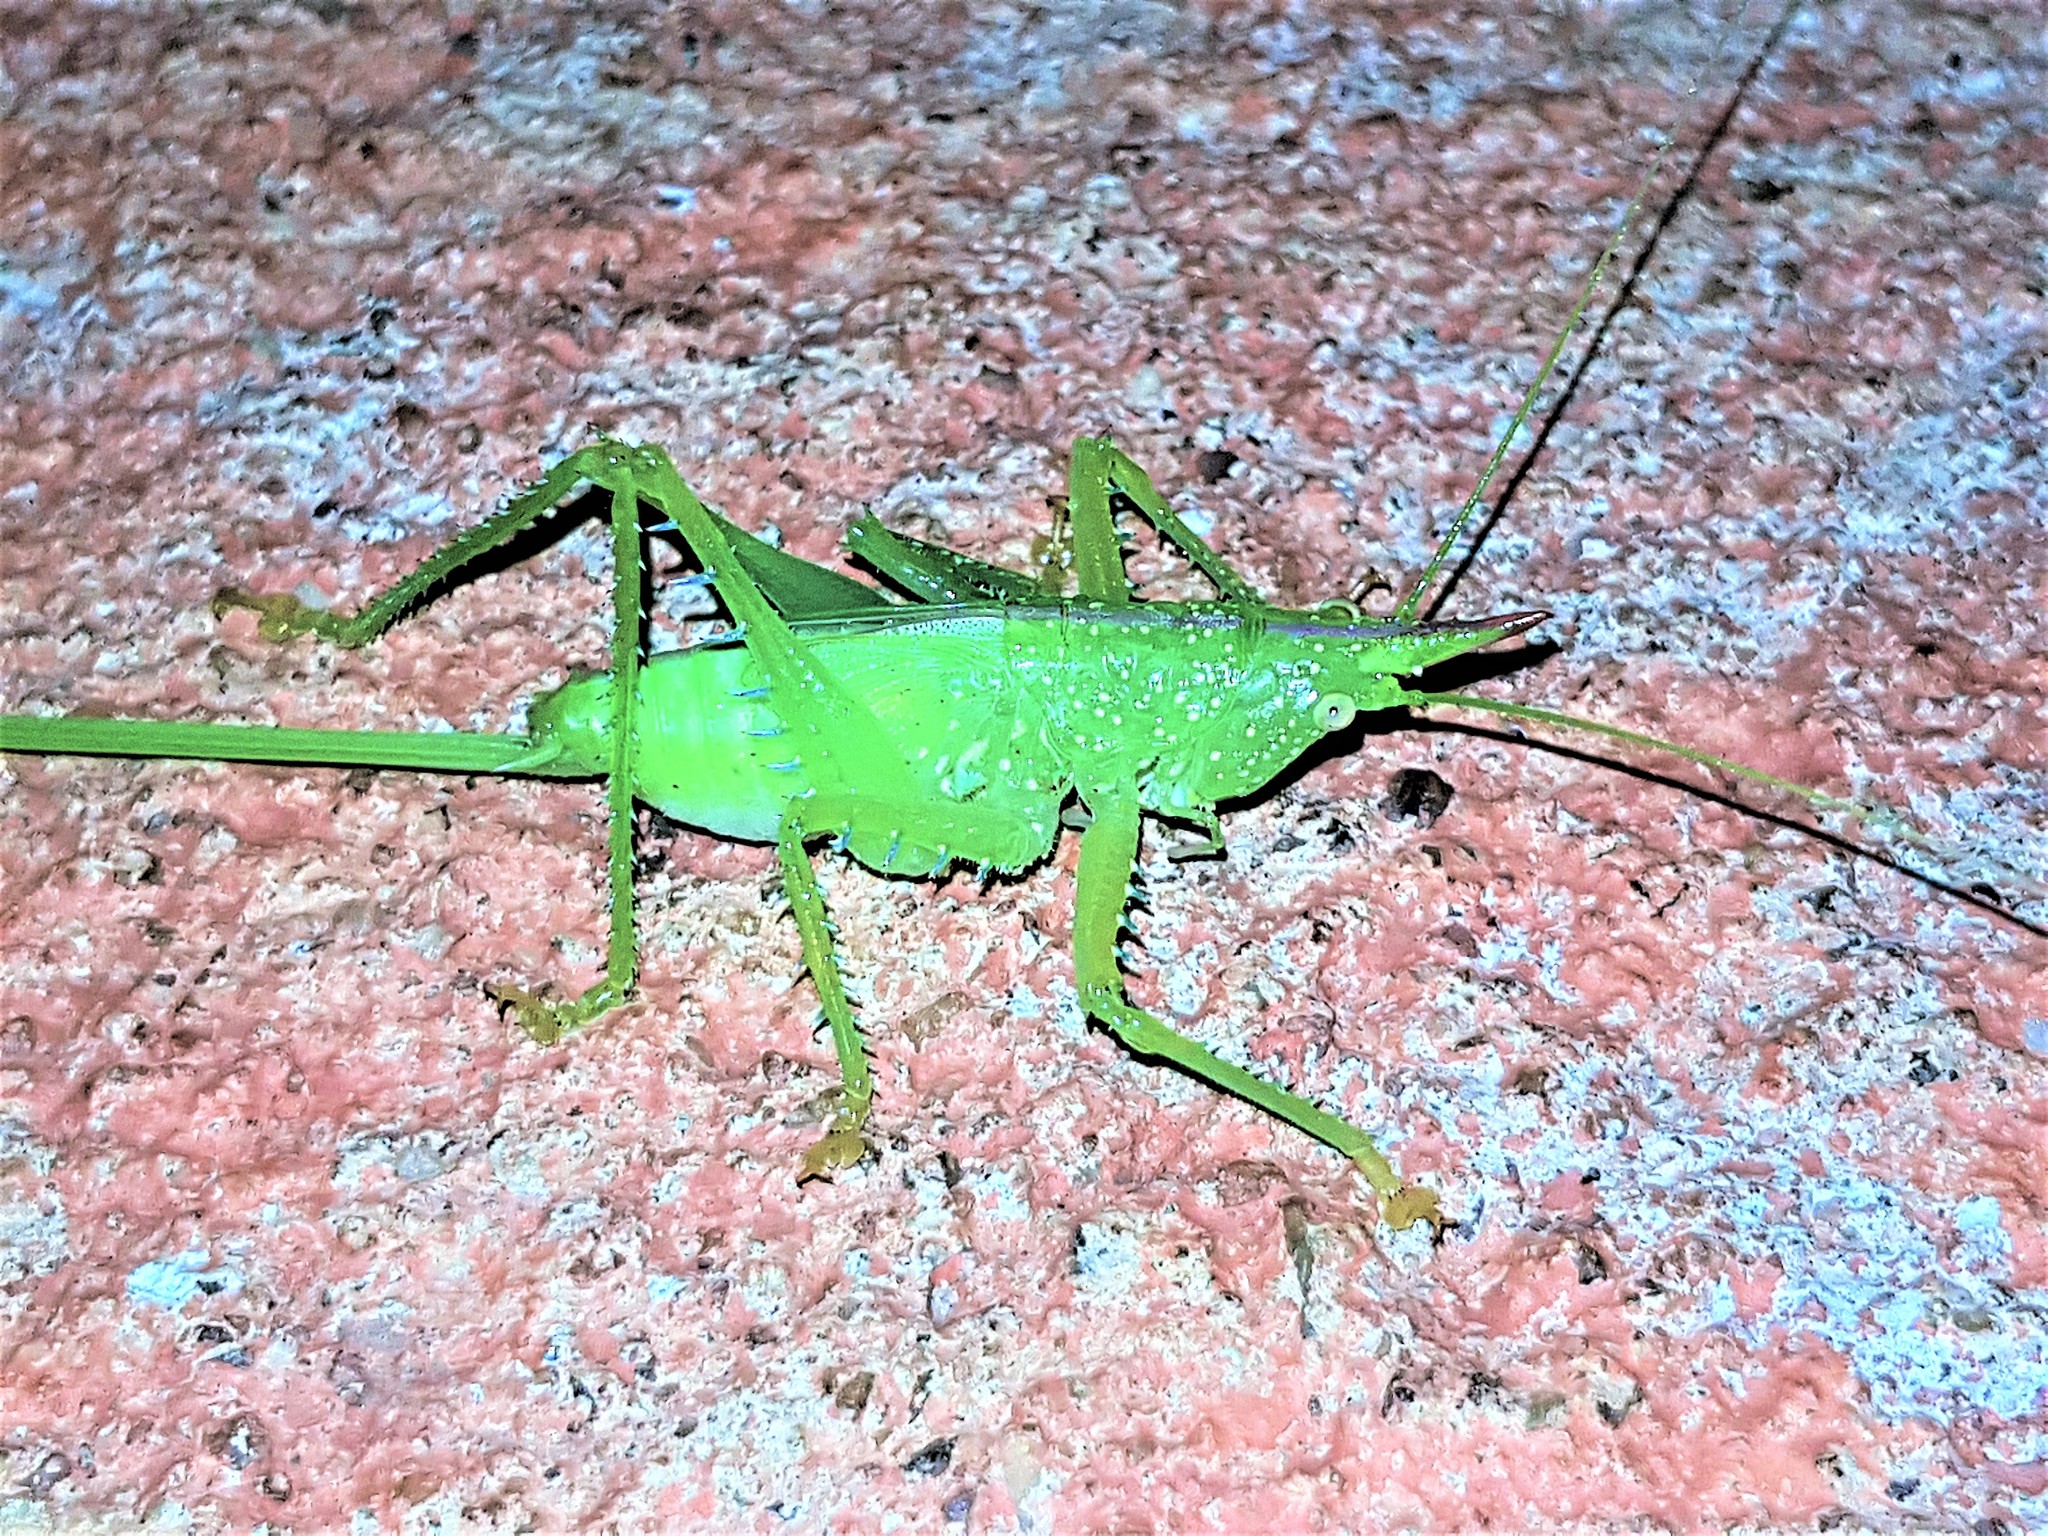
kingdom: Animalia
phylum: Arthropoda
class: Insecta
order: Orthoptera
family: Tettigoniidae
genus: Copiphora
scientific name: Copiphora gracilis
